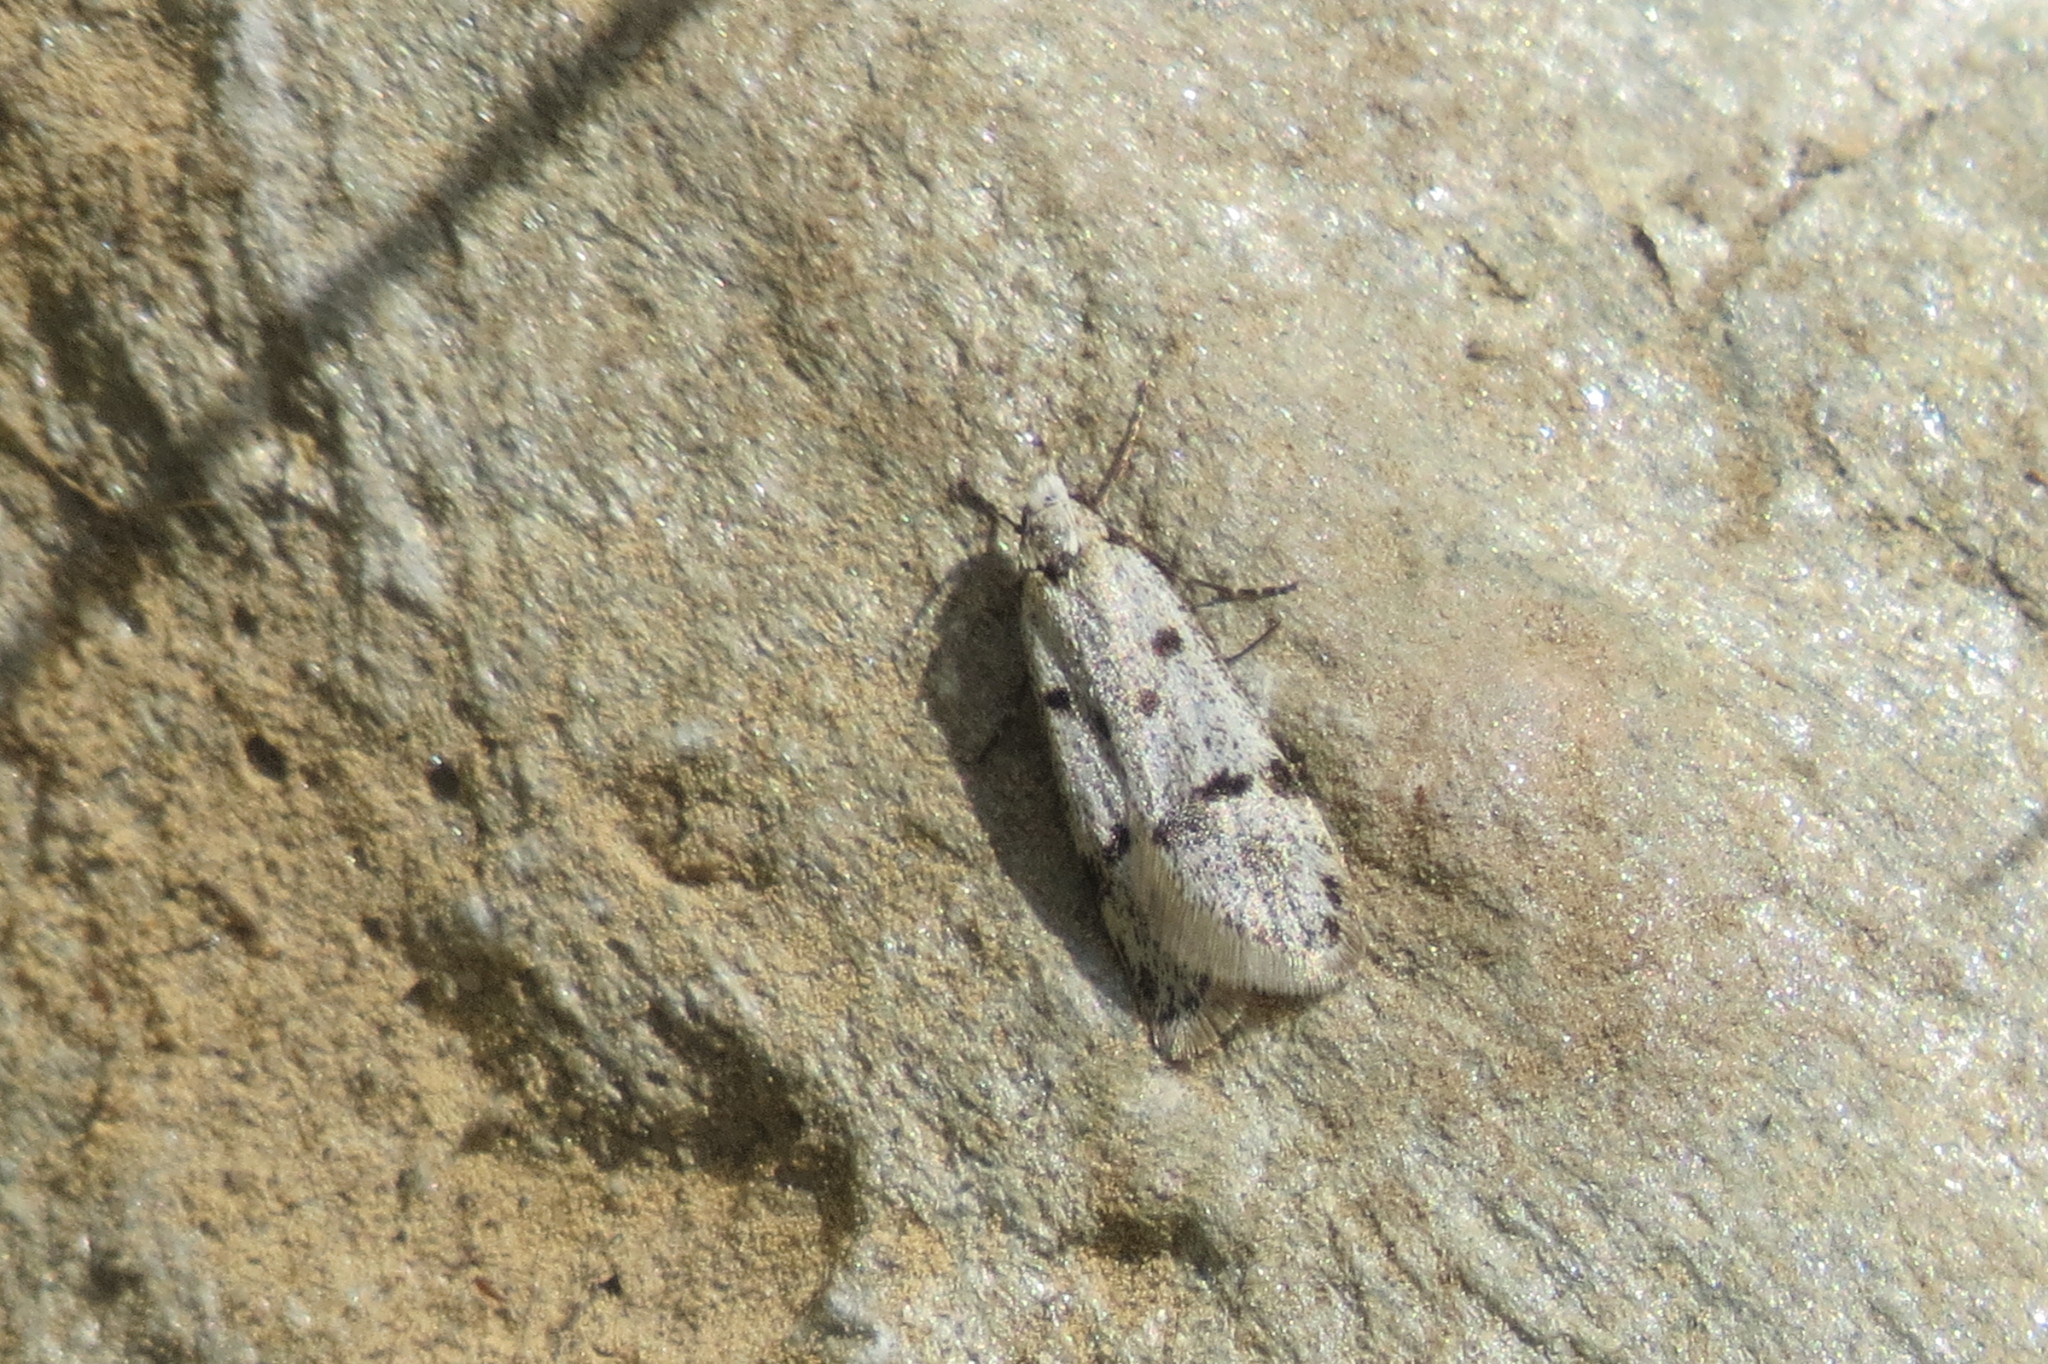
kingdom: Animalia
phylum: Arthropoda
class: Insecta
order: Lepidoptera
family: Autostichidae
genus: Symmoca
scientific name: Symmoca signella
